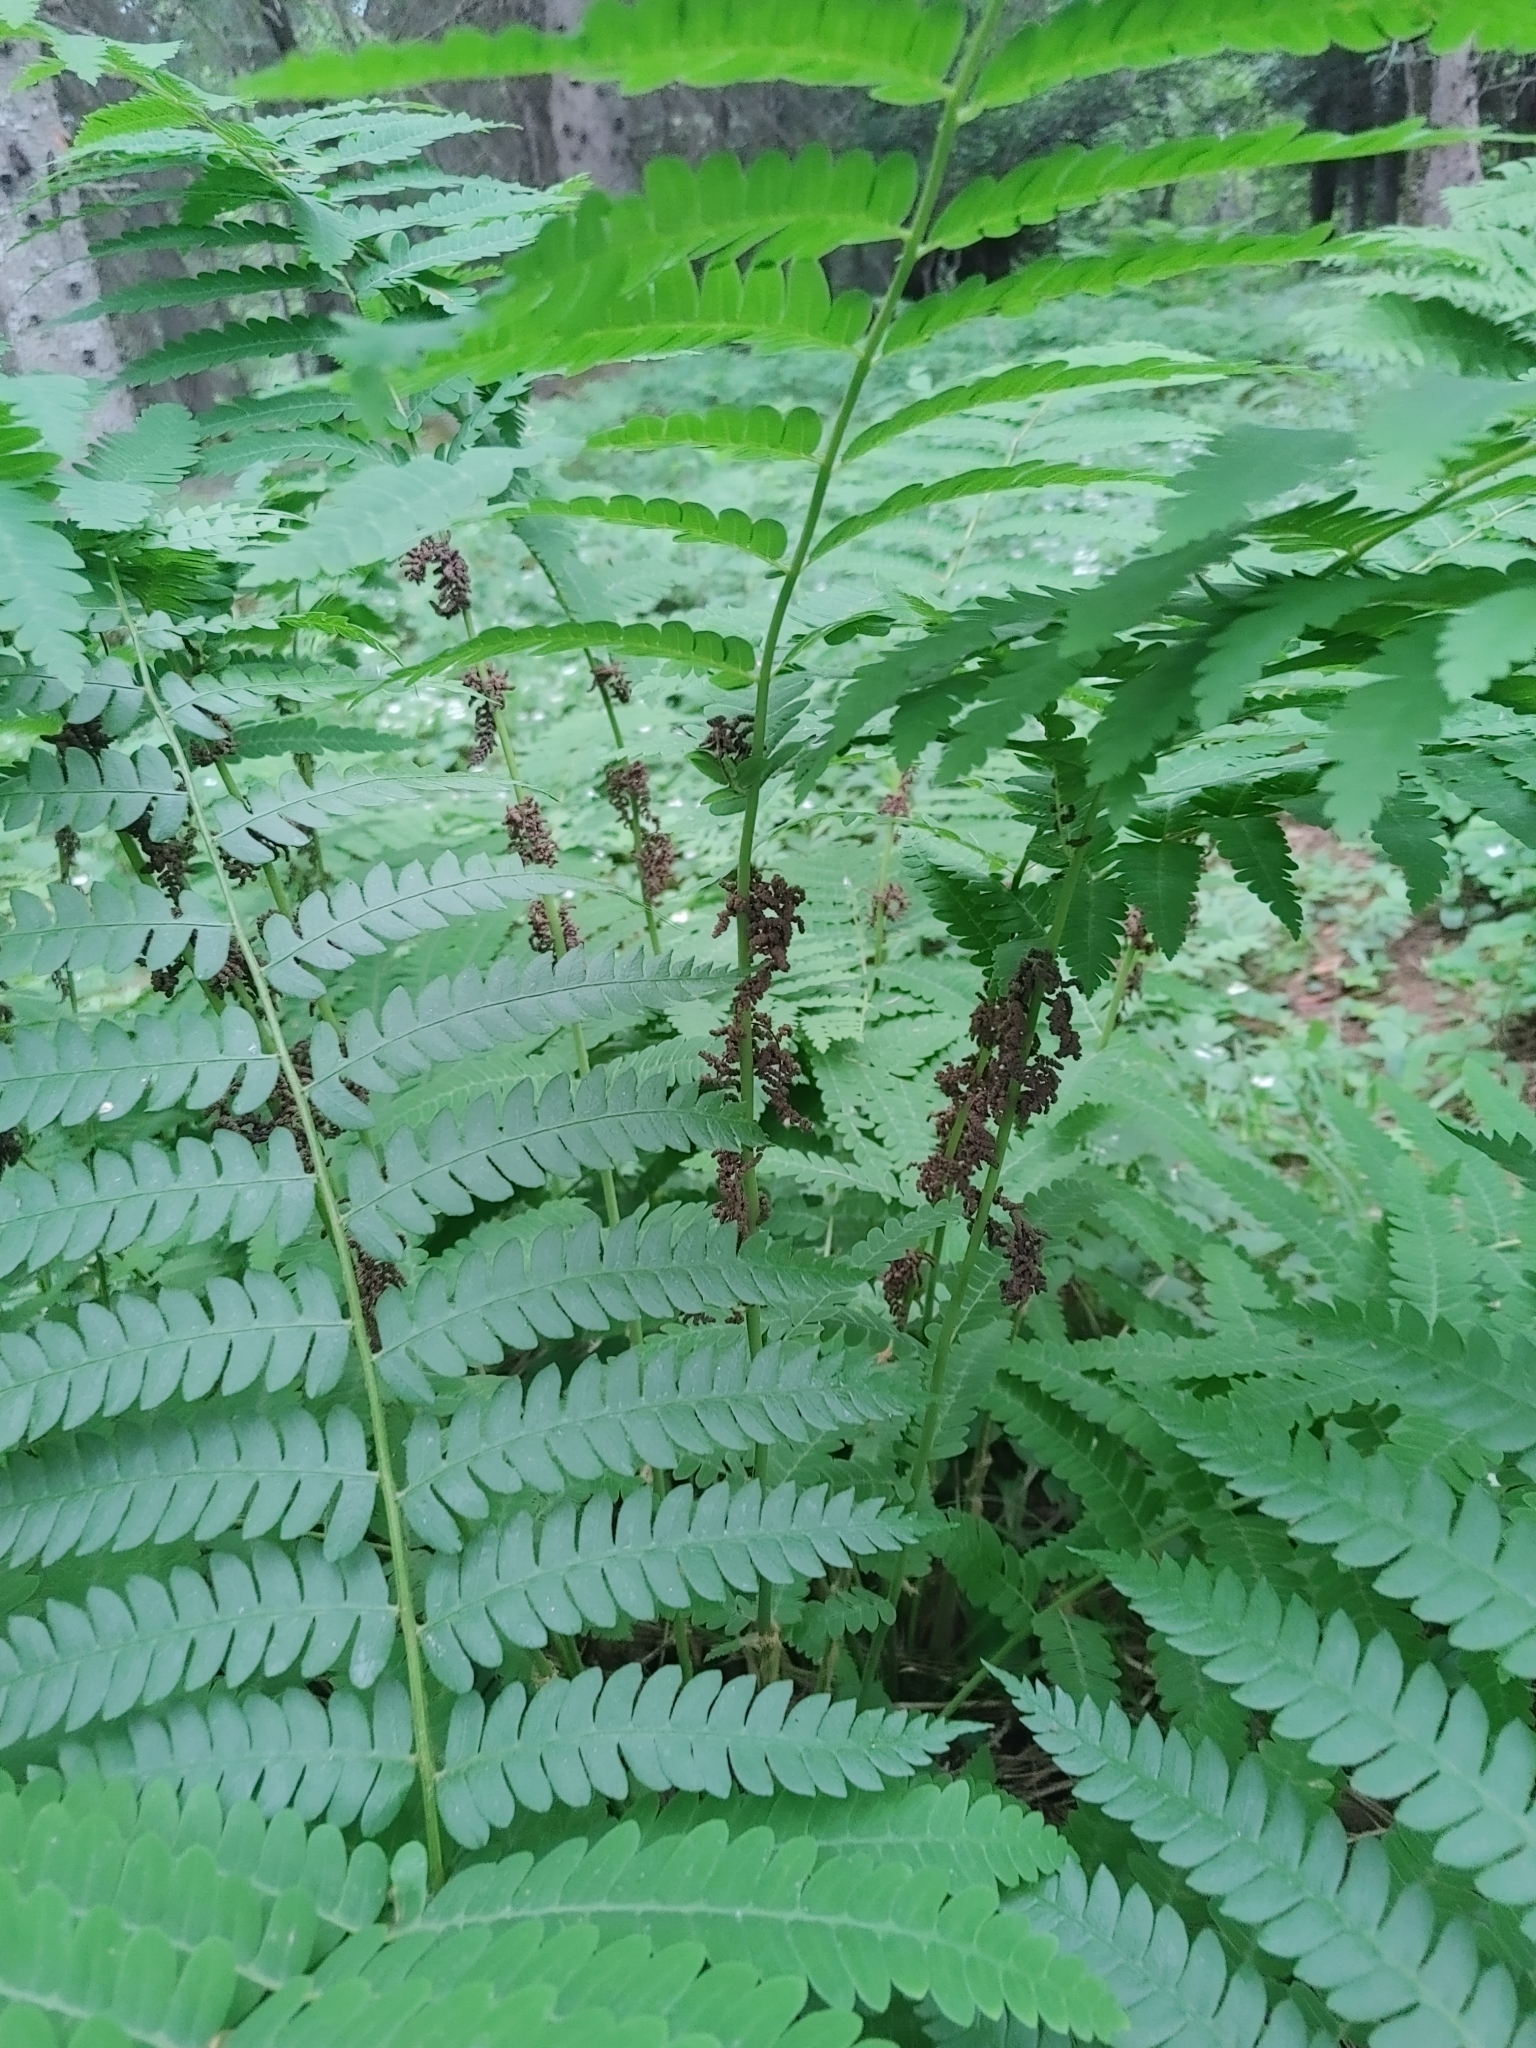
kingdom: Plantae
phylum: Tracheophyta
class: Polypodiopsida
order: Osmundales
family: Osmundaceae
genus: Claytosmunda
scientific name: Claytosmunda claytoniana
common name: Clayton's fern
